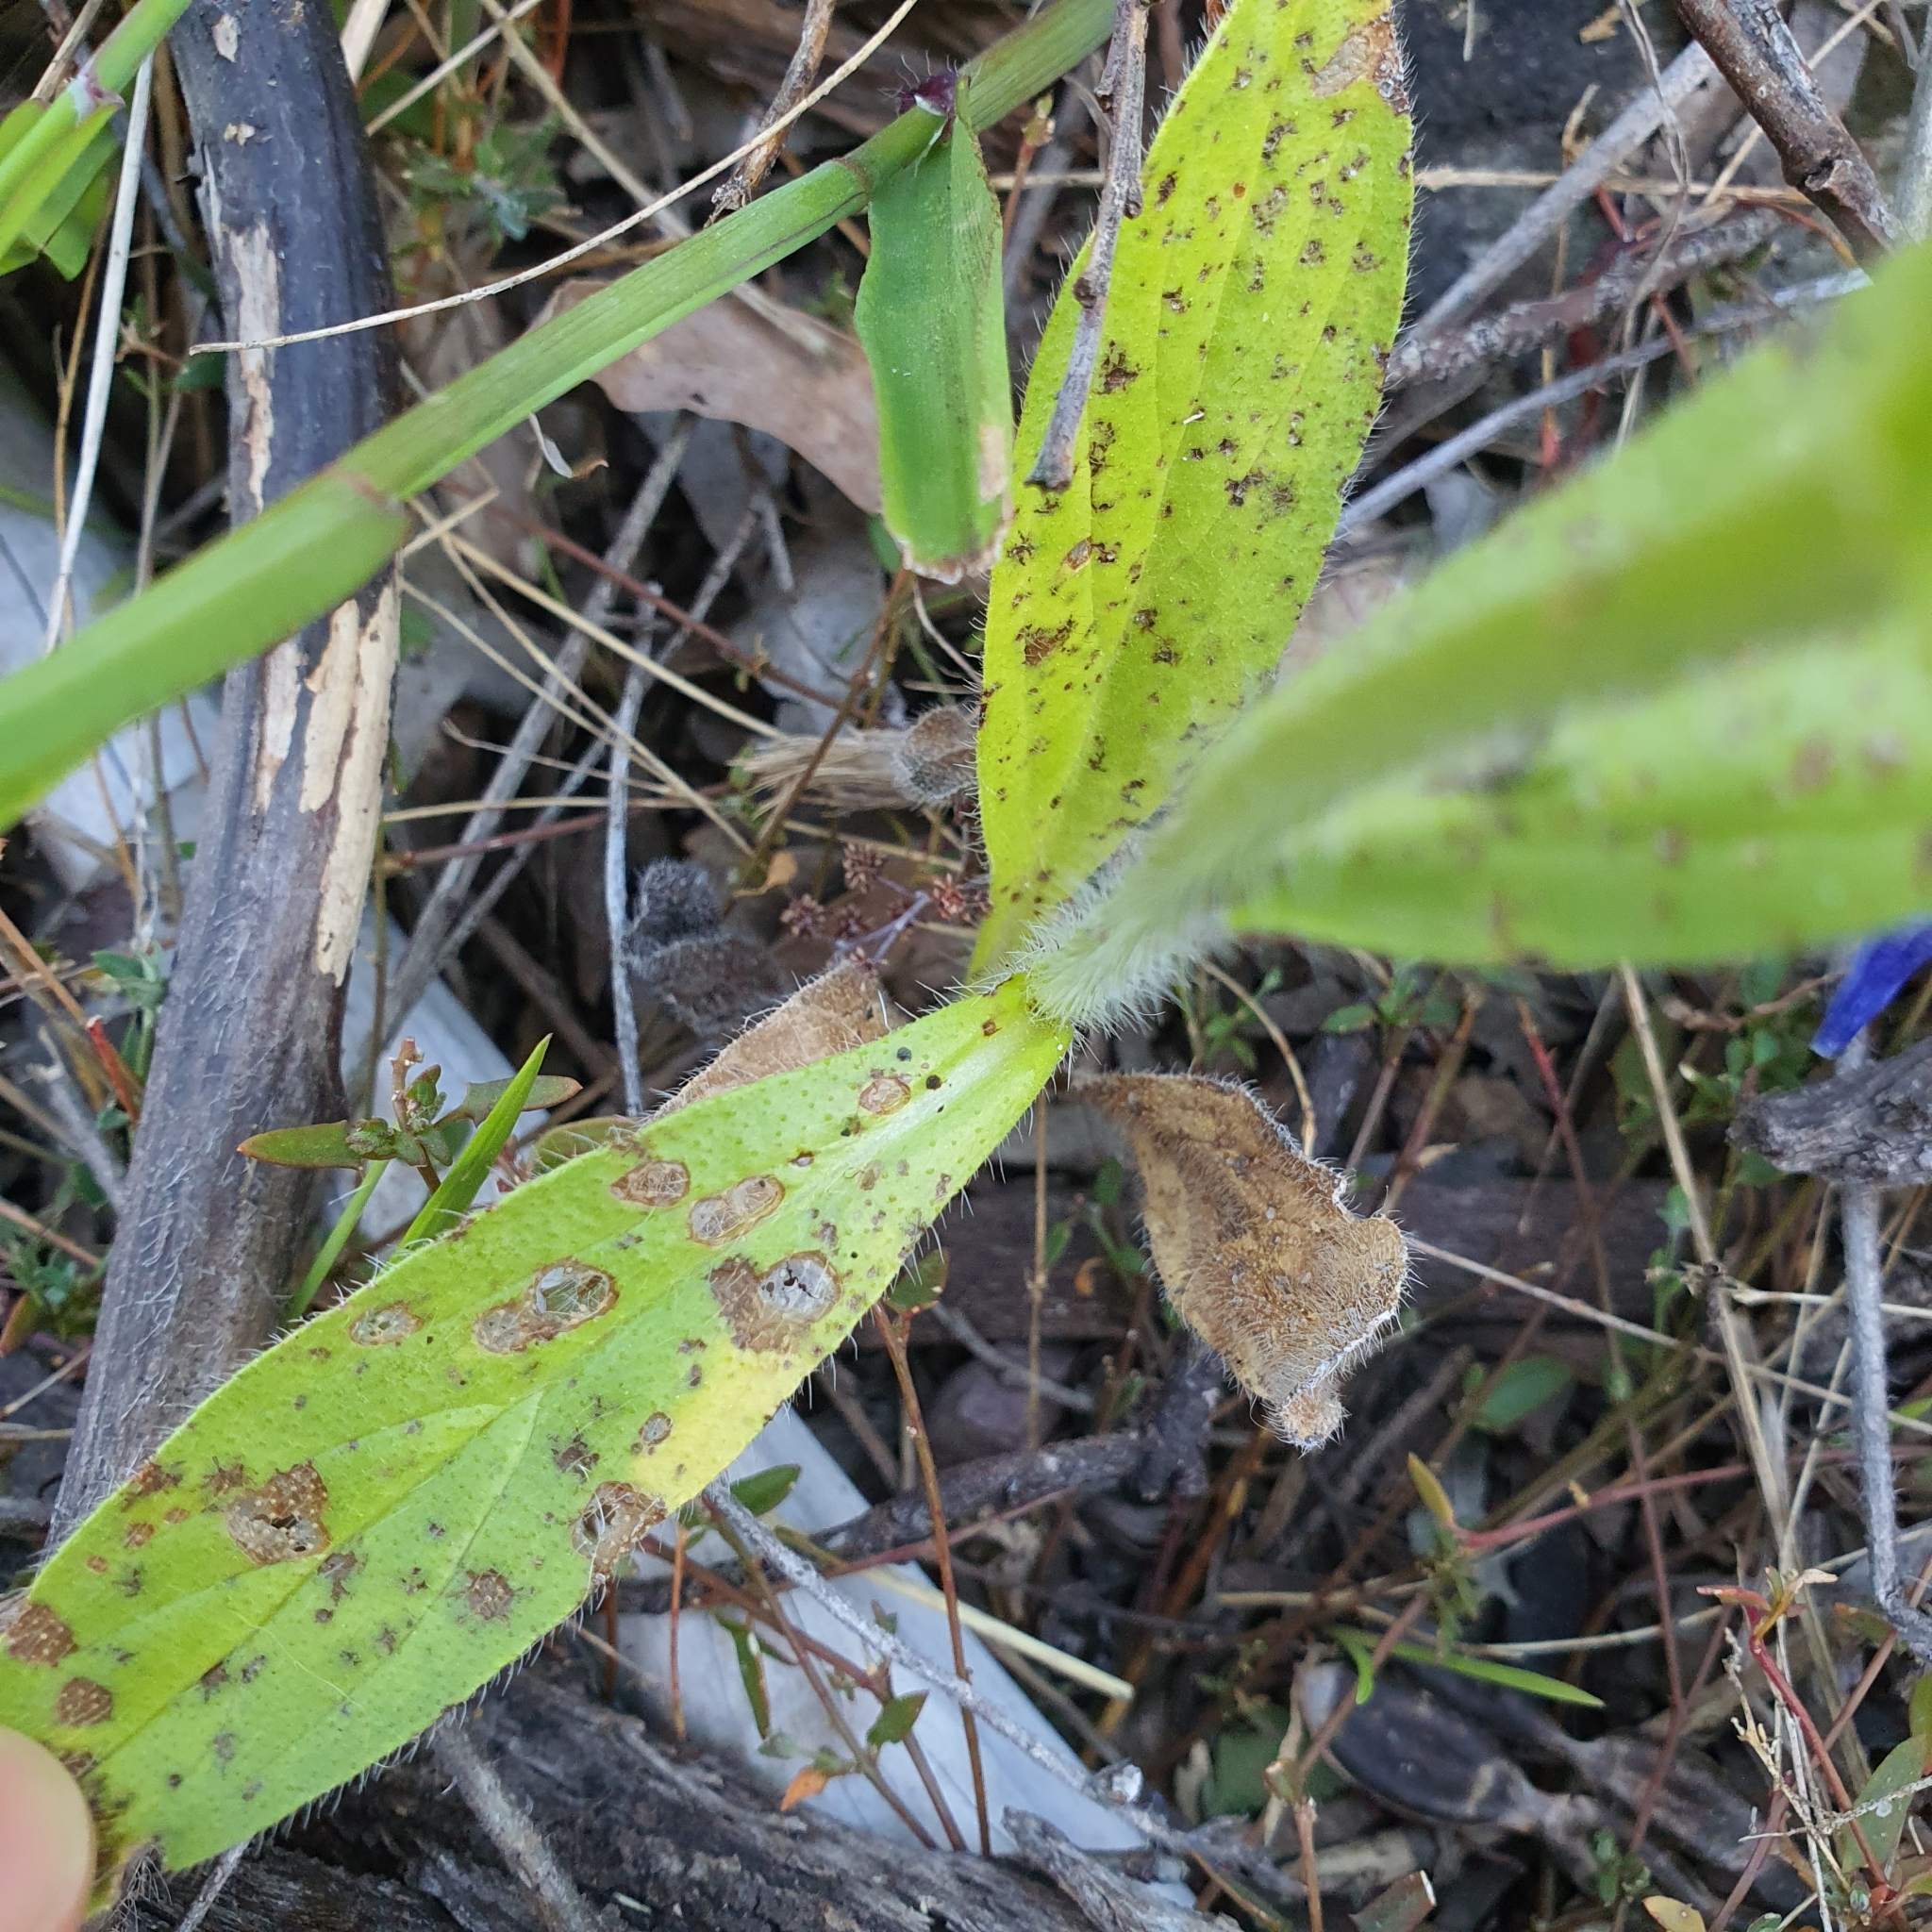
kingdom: Plantae
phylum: Tracheophyta
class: Magnoliopsida
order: Boraginales
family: Boraginaceae
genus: Echium
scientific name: Echium plantagineum
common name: Purple viper's-bugloss
